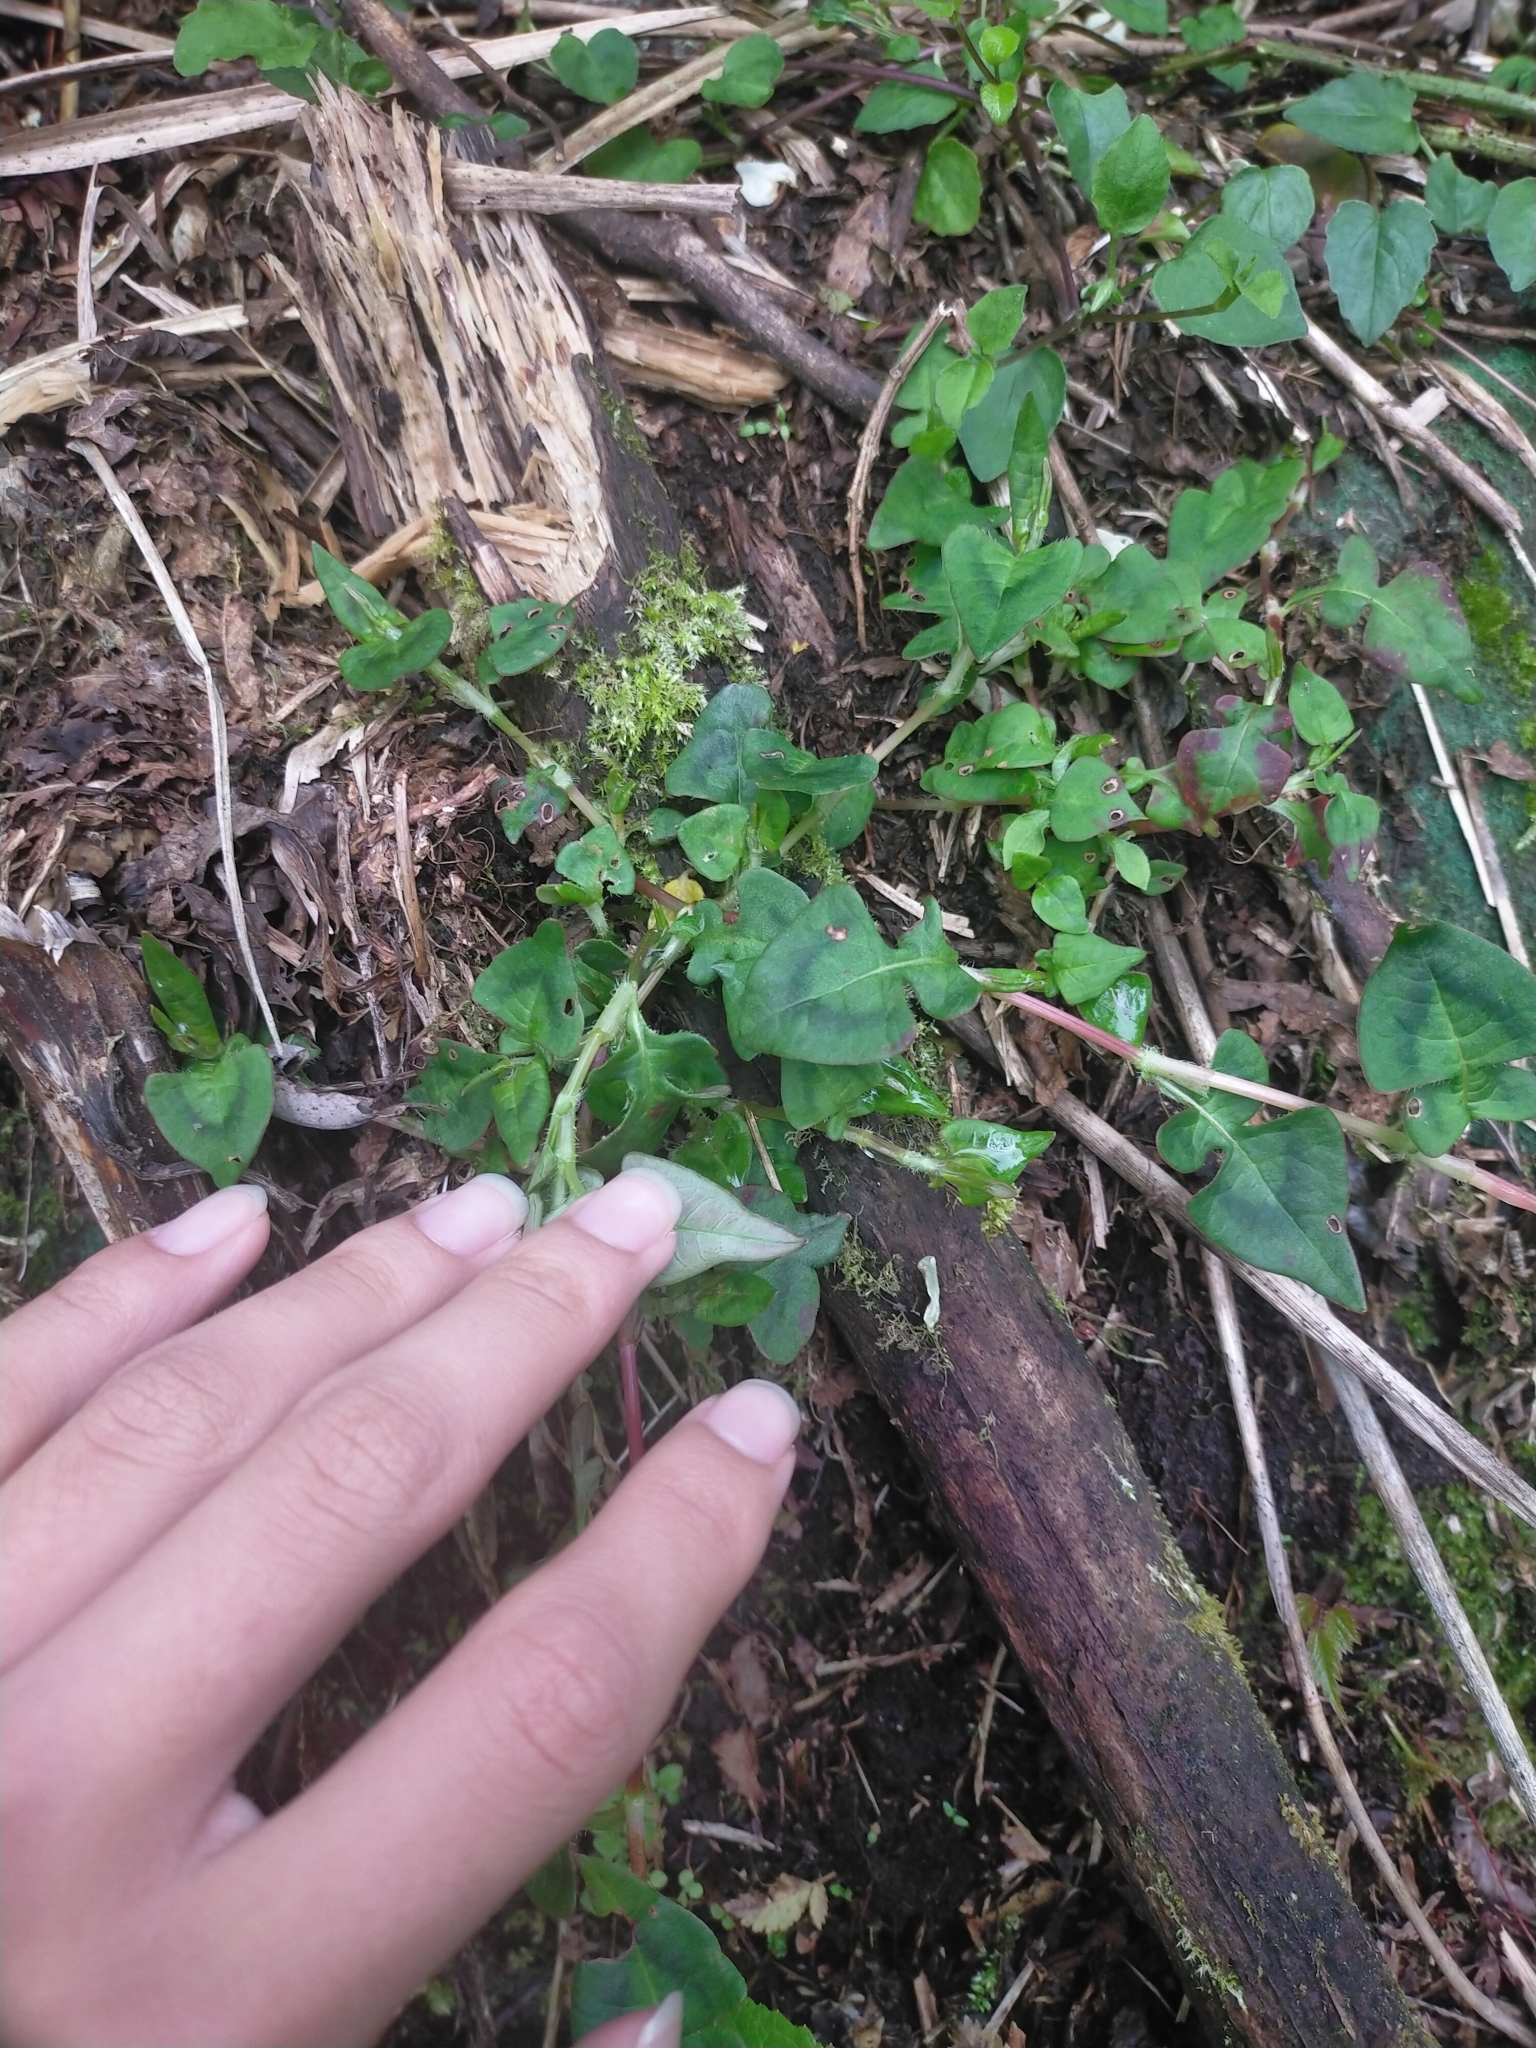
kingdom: Plantae
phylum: Tracheophyta
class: Magnoliopsida
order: Caryophyllales
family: Polygonaceae
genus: Persicaria
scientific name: Persicaria runcinata
